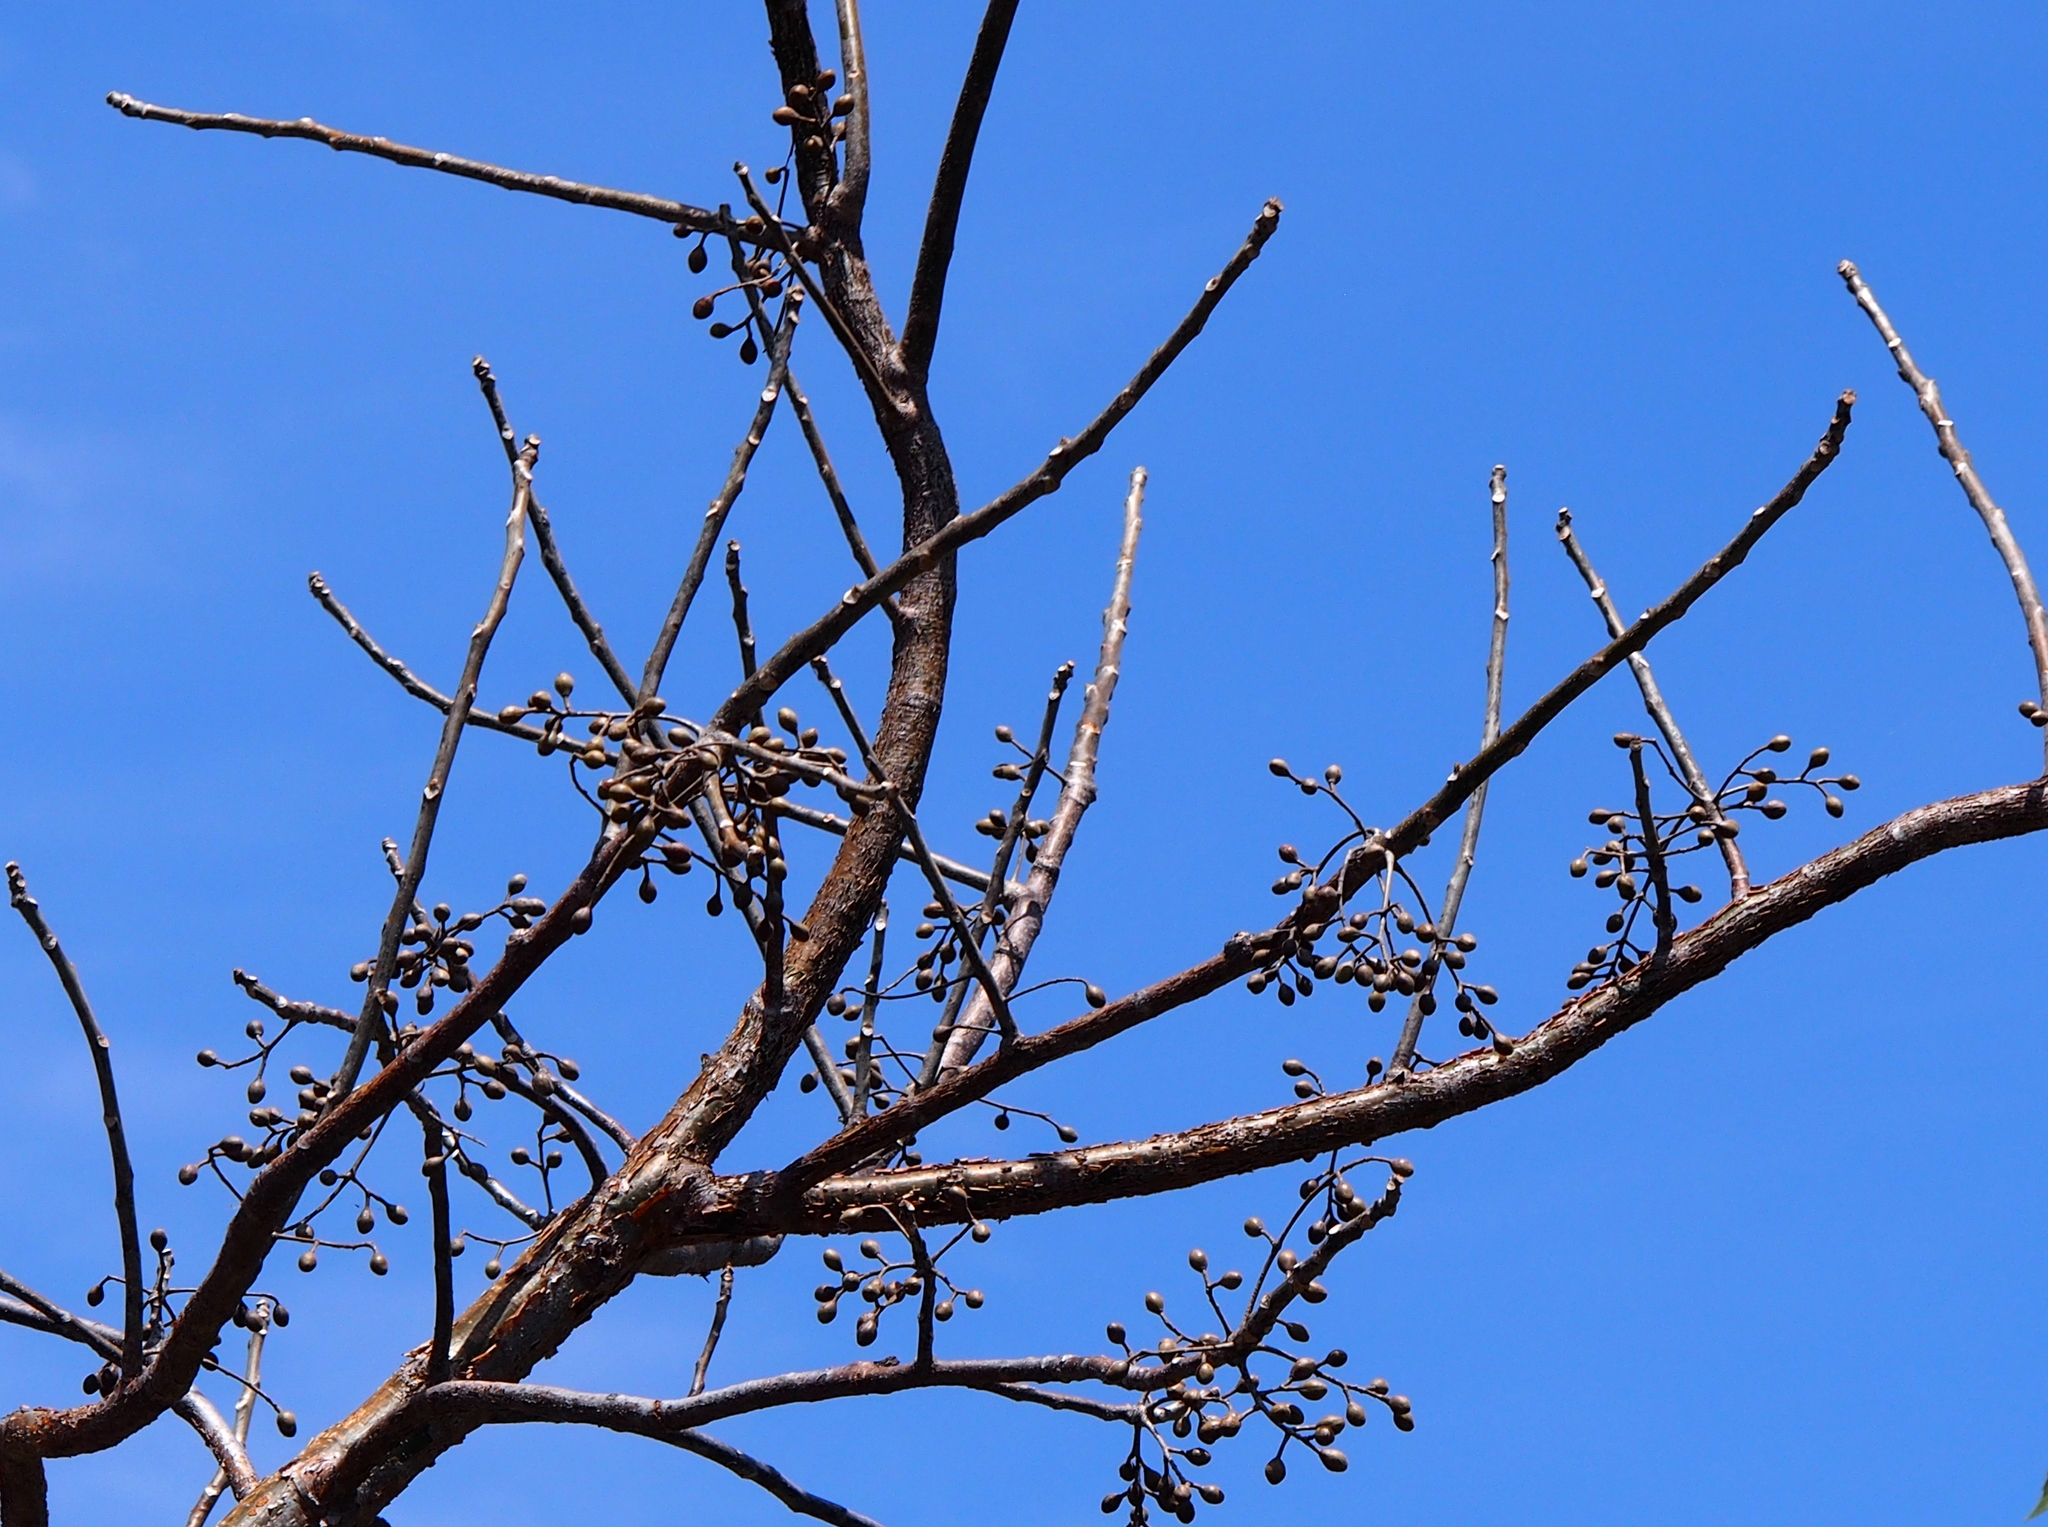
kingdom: Plantae
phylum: Tracheophyta
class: Magnoliopsida
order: Sapindales
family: Burseraceae
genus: Bursera
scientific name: Bursera simaruba
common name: Turpentine tree
